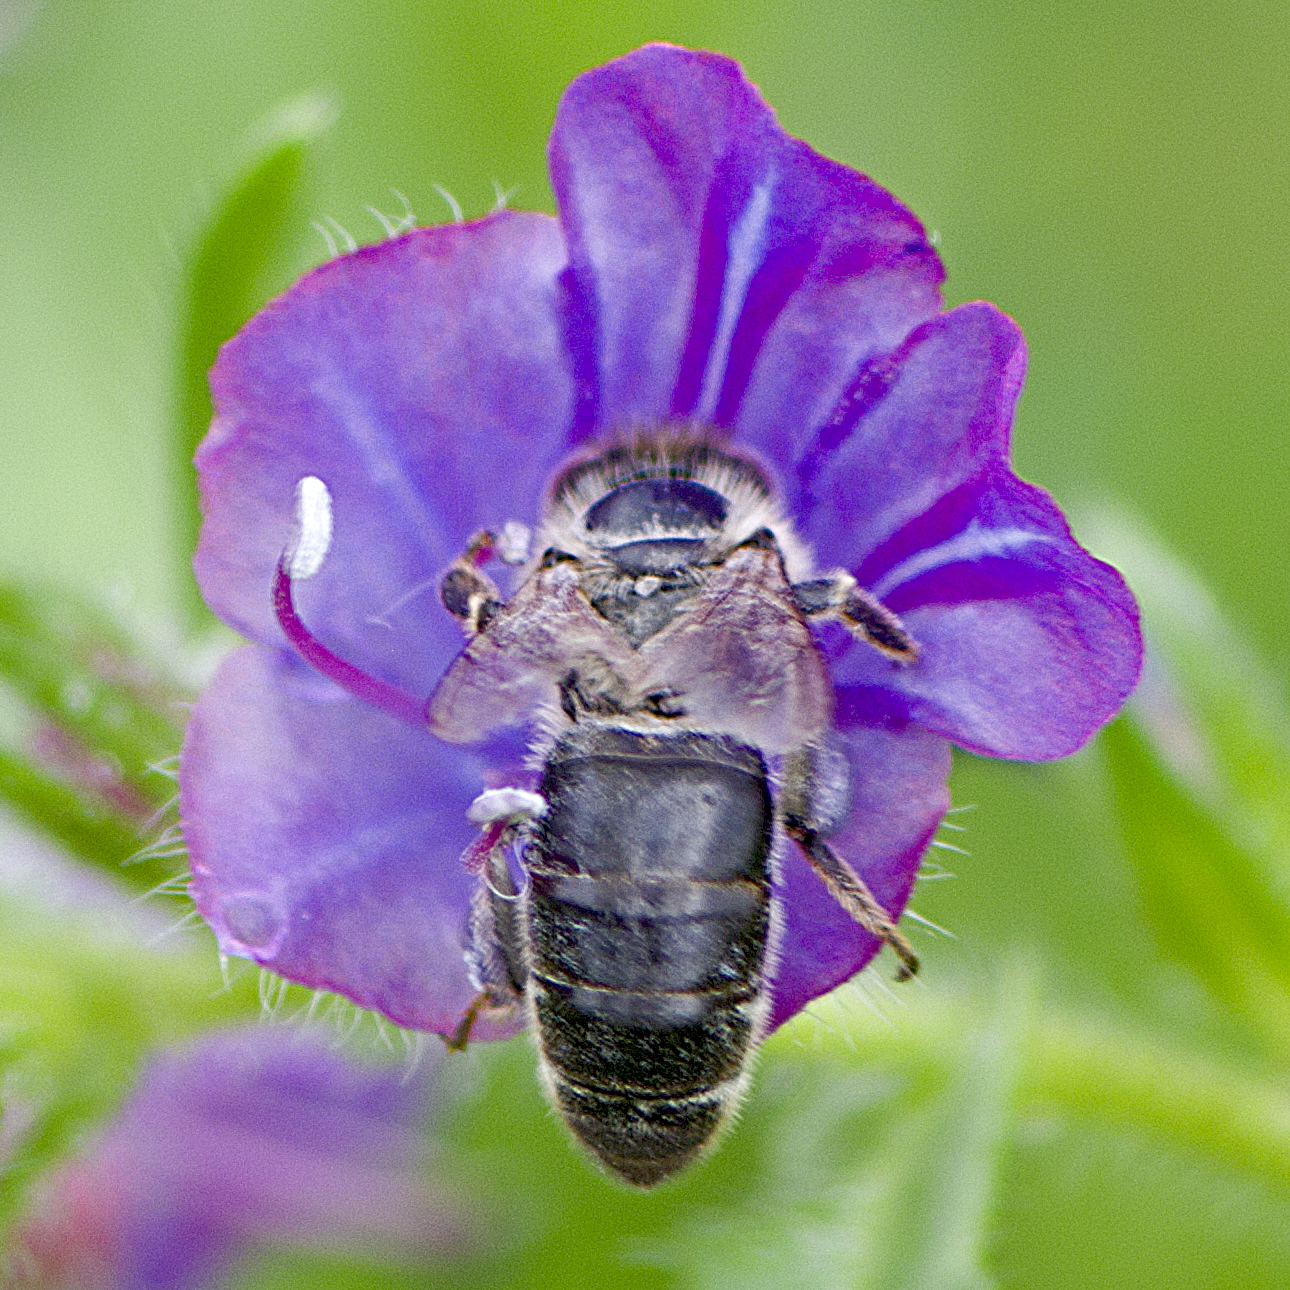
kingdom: Animalia
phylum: Arthropoda
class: Insecta
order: Hymenoptera
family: Apidae
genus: Apis
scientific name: Apis mellifera
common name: Honey bee
